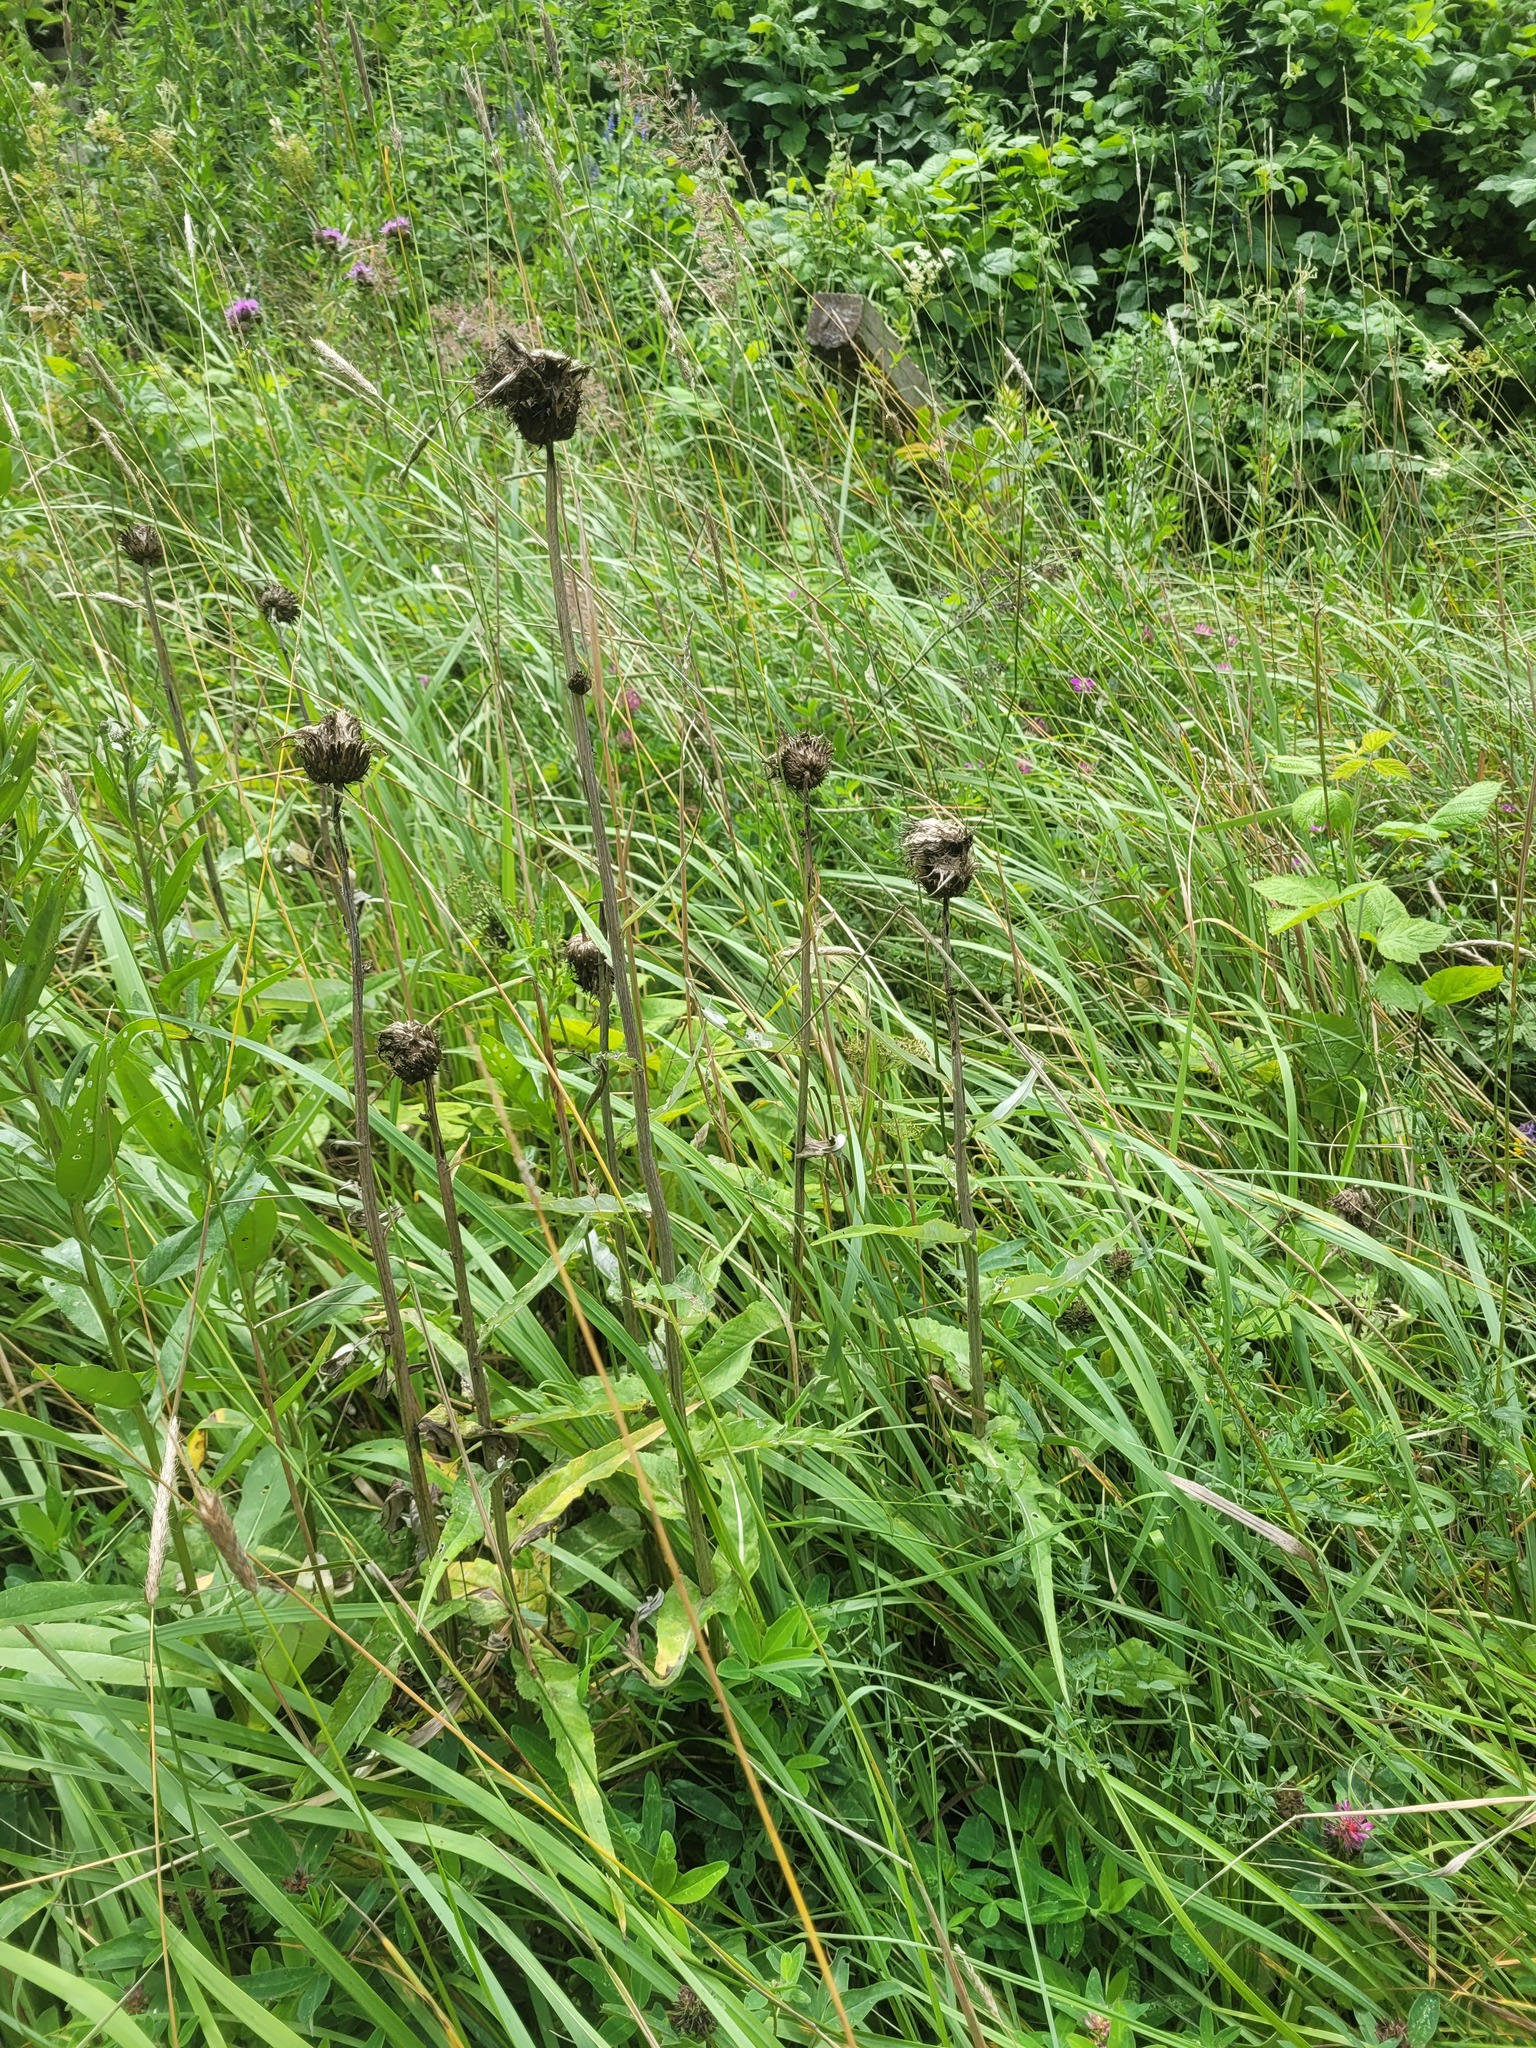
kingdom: Plantae
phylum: Tracheophyta
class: Magnoliopsida
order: Asterales
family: Asteraceae
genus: Cirsium
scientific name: Cirsium heterophyllum
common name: Melancholy thistle
